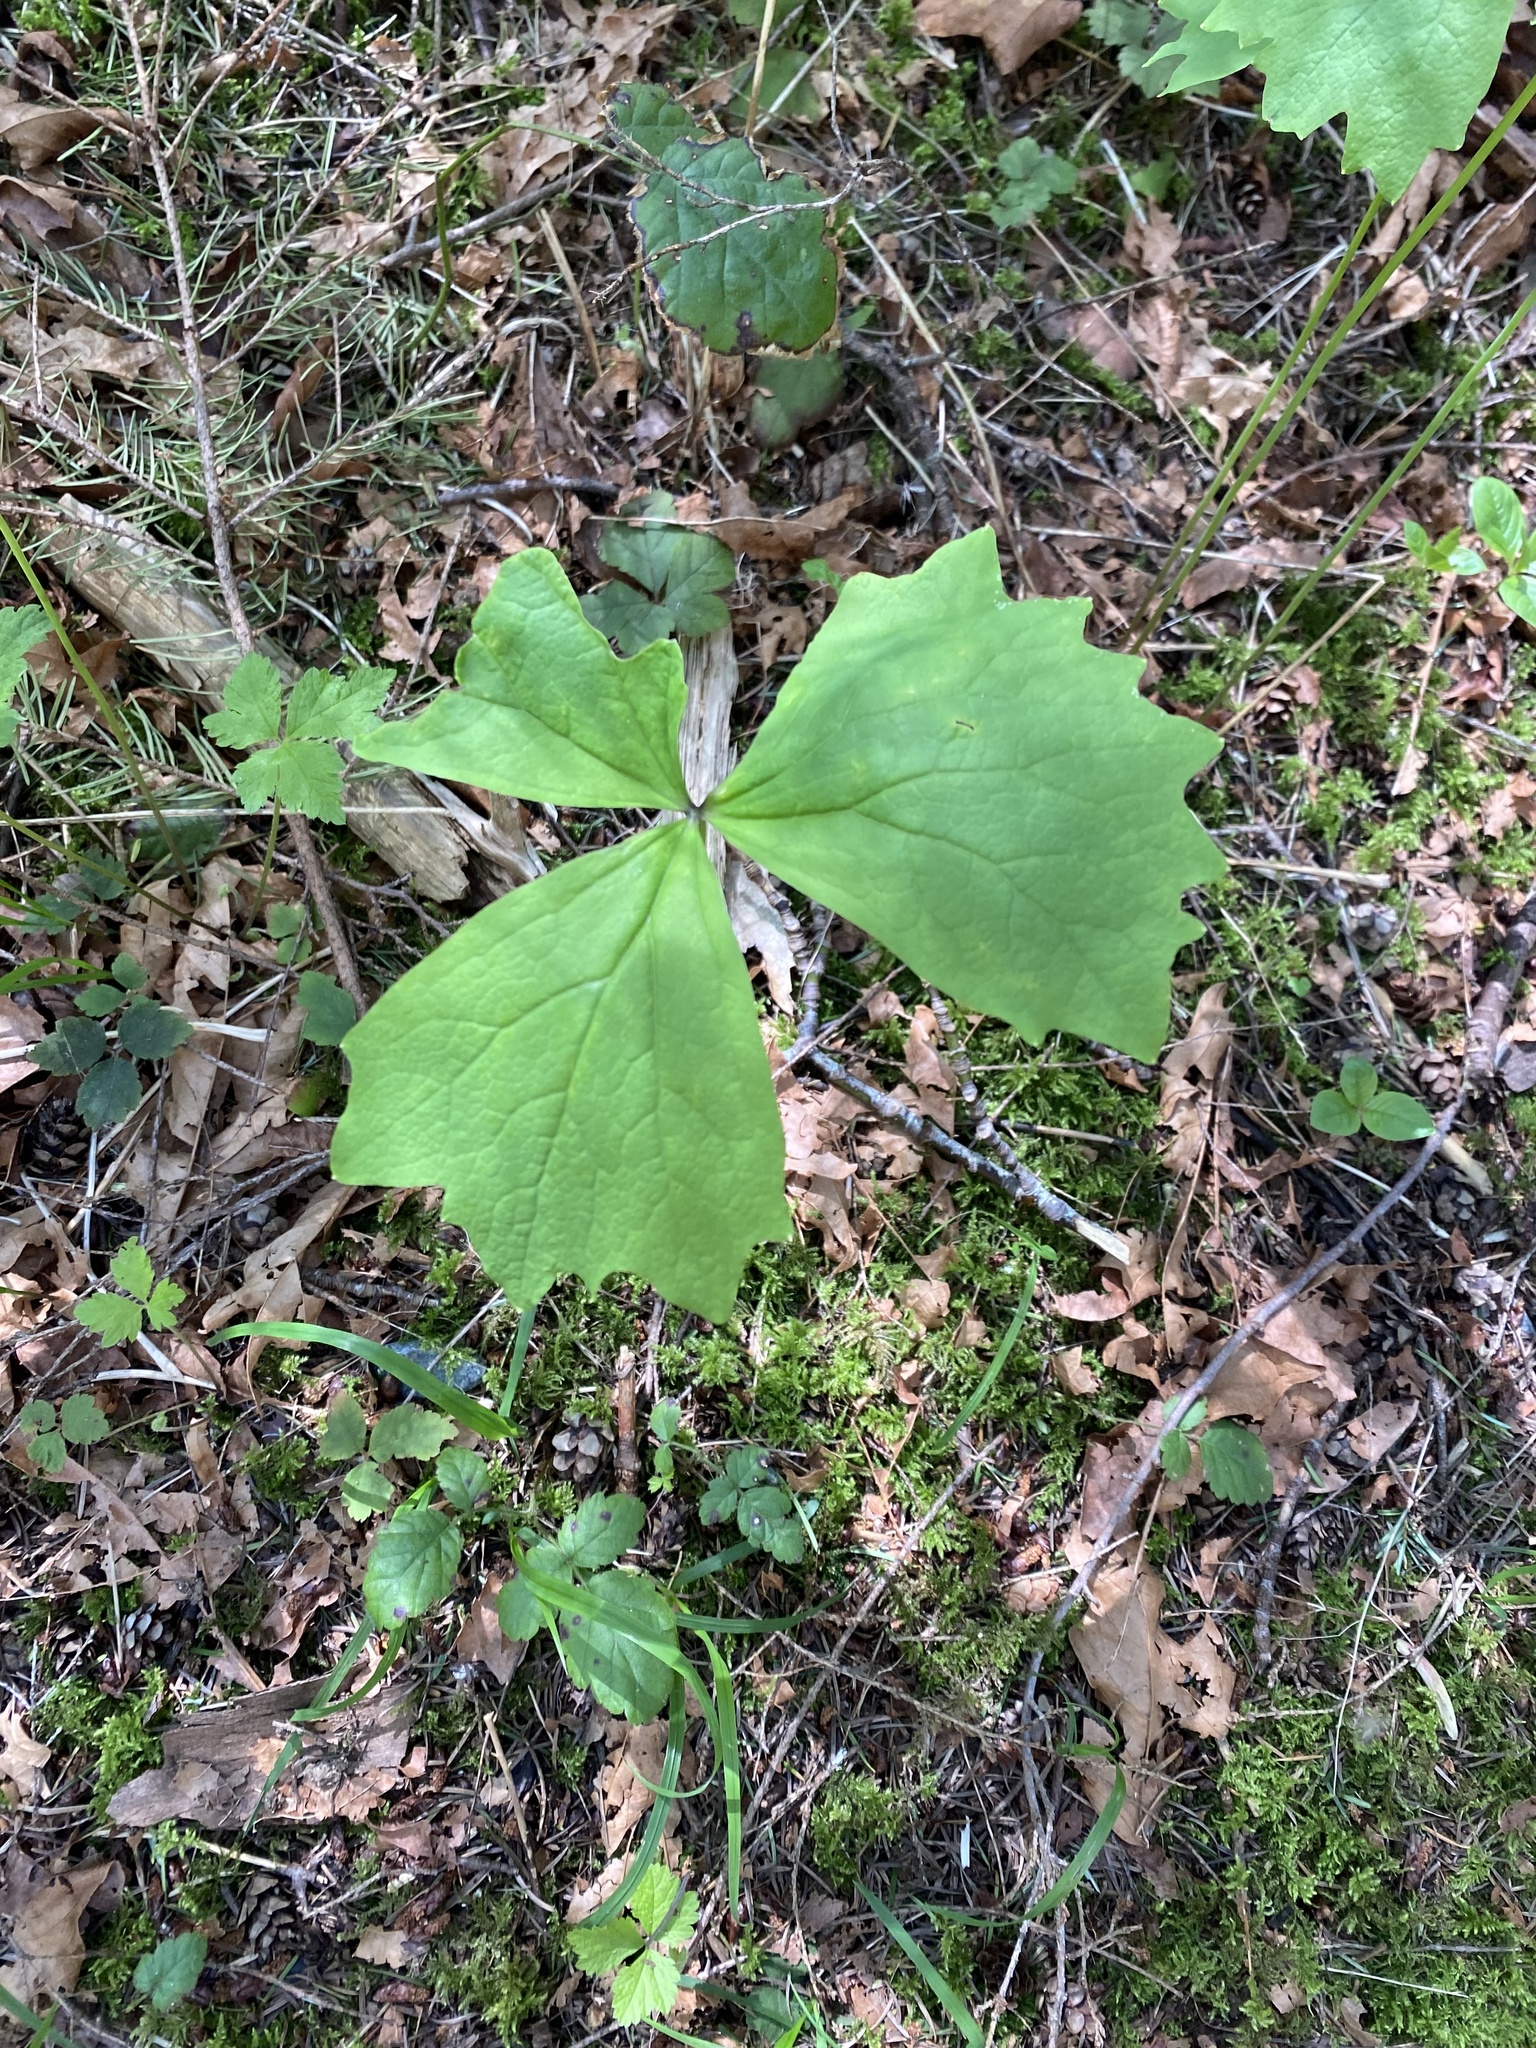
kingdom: Plantae
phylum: Tracheophyta
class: Magnoliopsida
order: Ranunculales
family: Berberidaceae
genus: Achlys
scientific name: Achlys triphylla
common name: Vanilla-leaf
